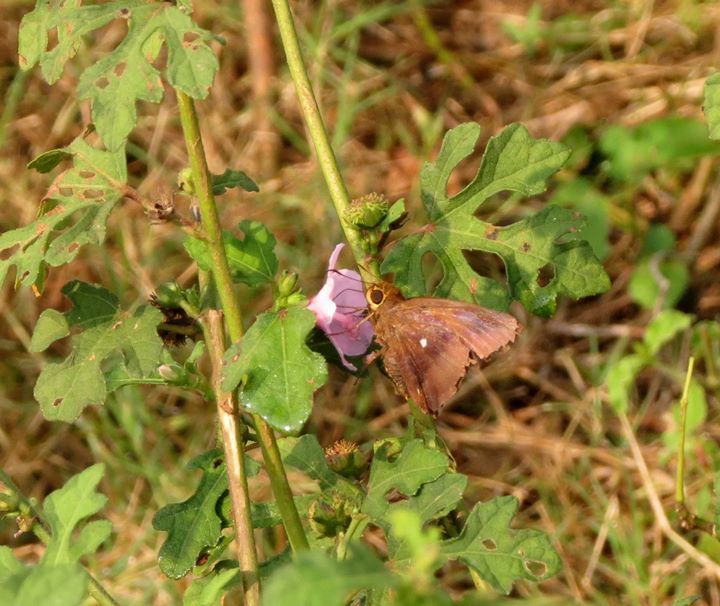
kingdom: Animalia
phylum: Arthropoda
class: Insecta
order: Lepidoptera
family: Hesperiidae
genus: Hasora
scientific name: Hasora badra
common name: Common awl
